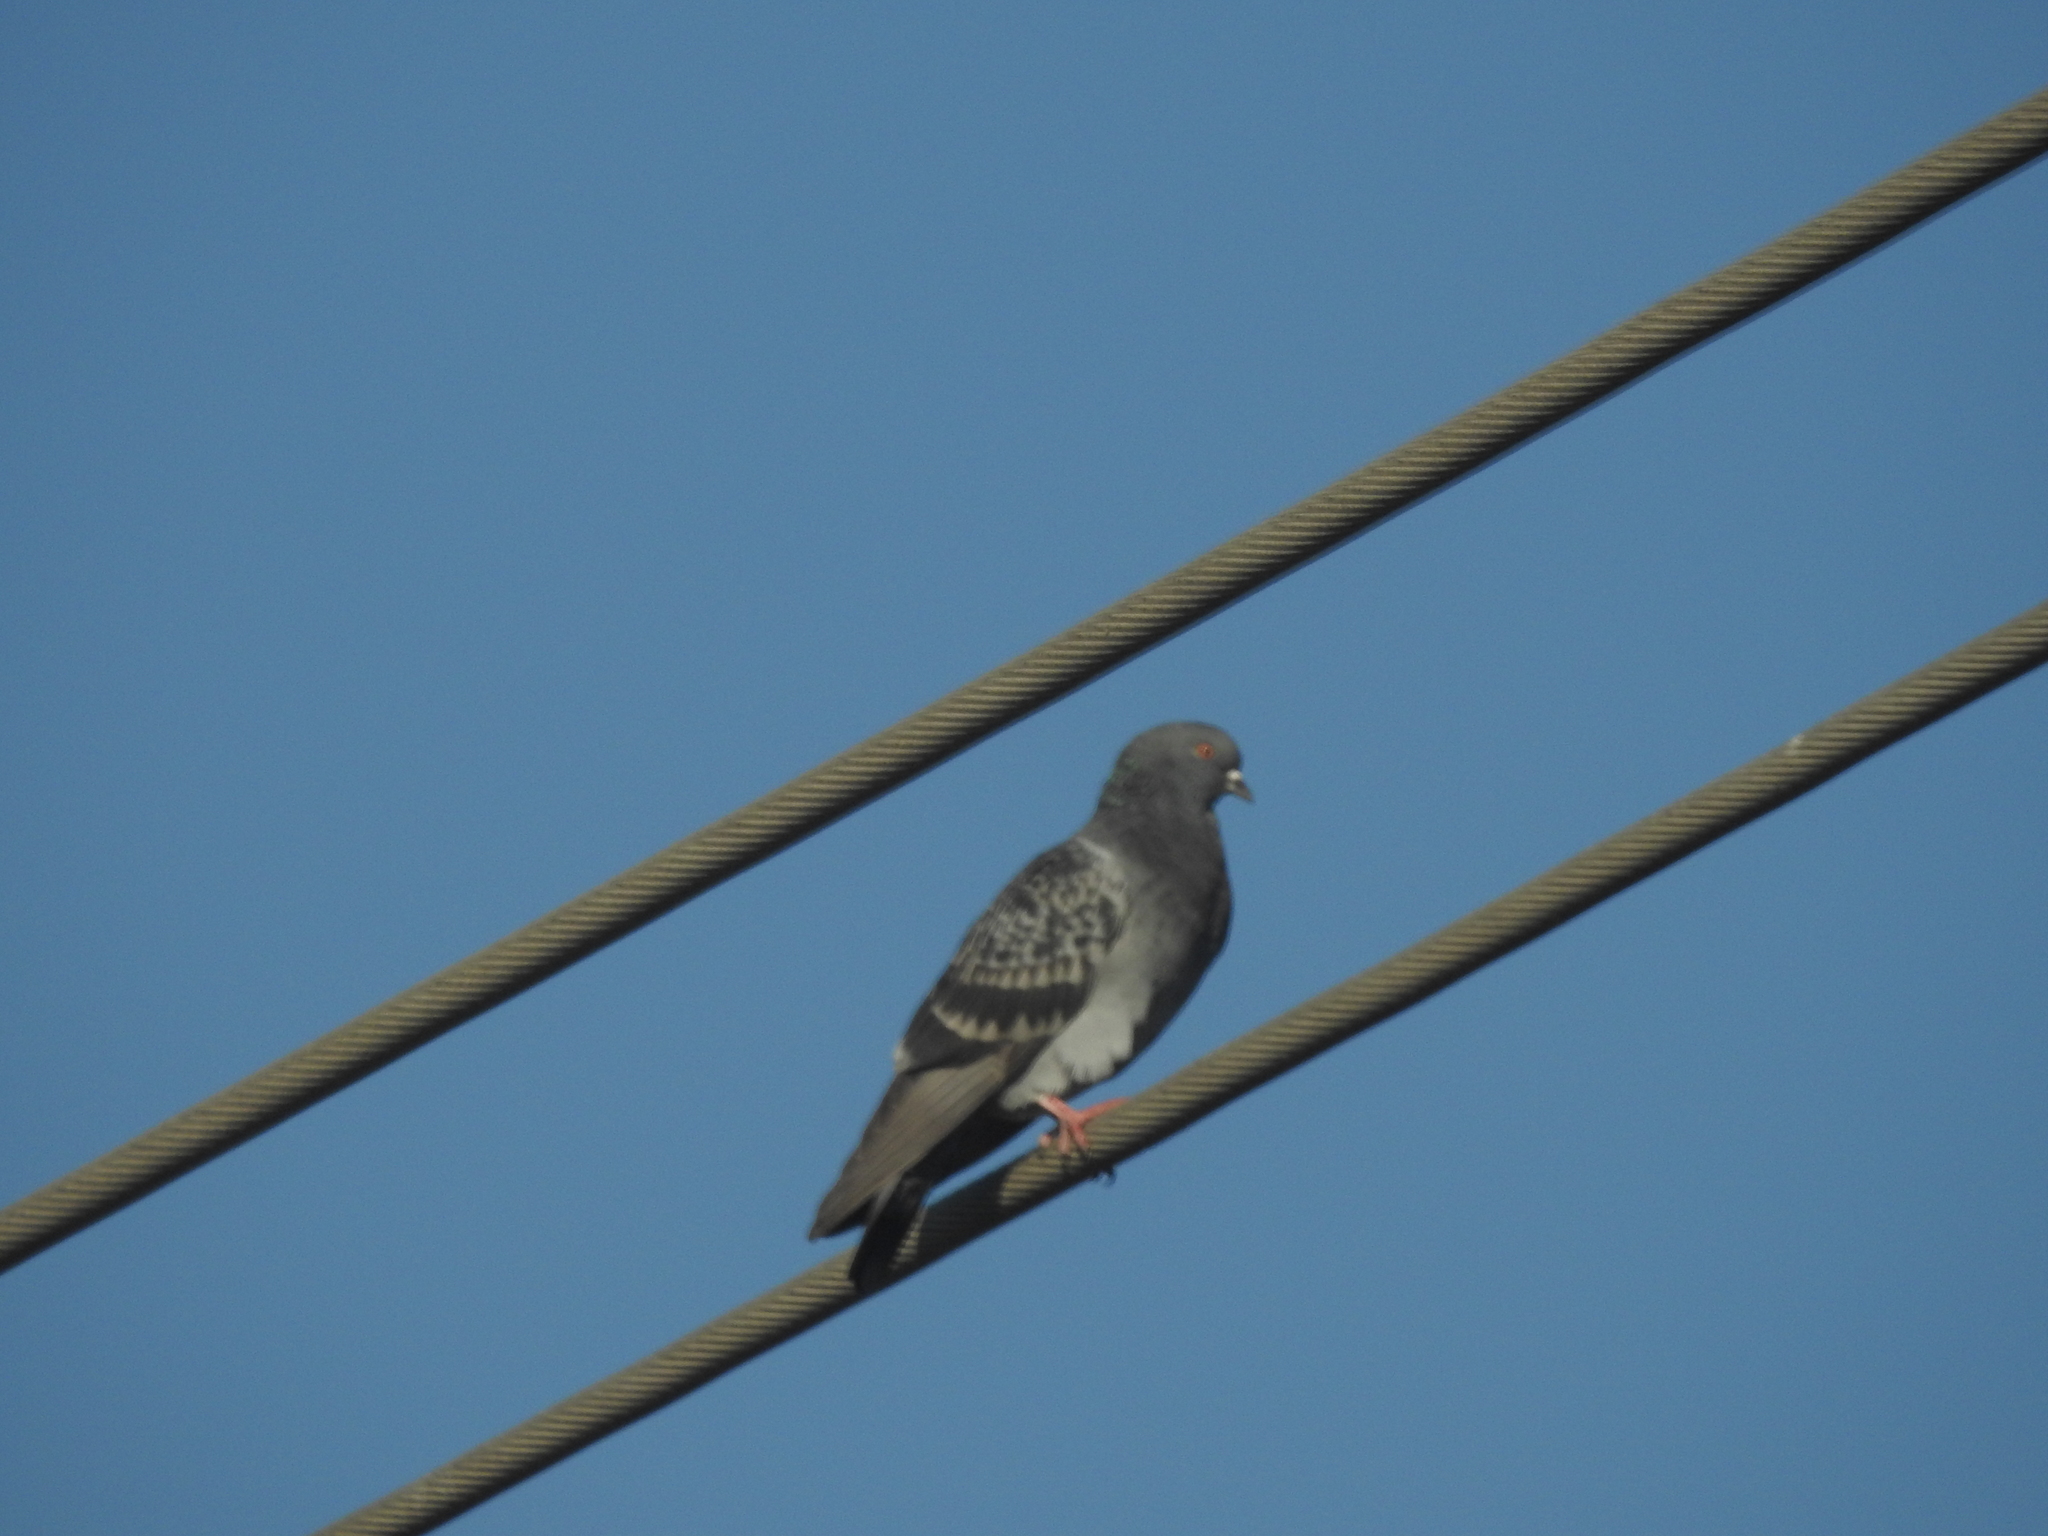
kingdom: Animalia
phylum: Chordata
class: Aves
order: Columbiformes
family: Columbidae
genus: Columba
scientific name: Columba livia
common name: Rock pigeon
